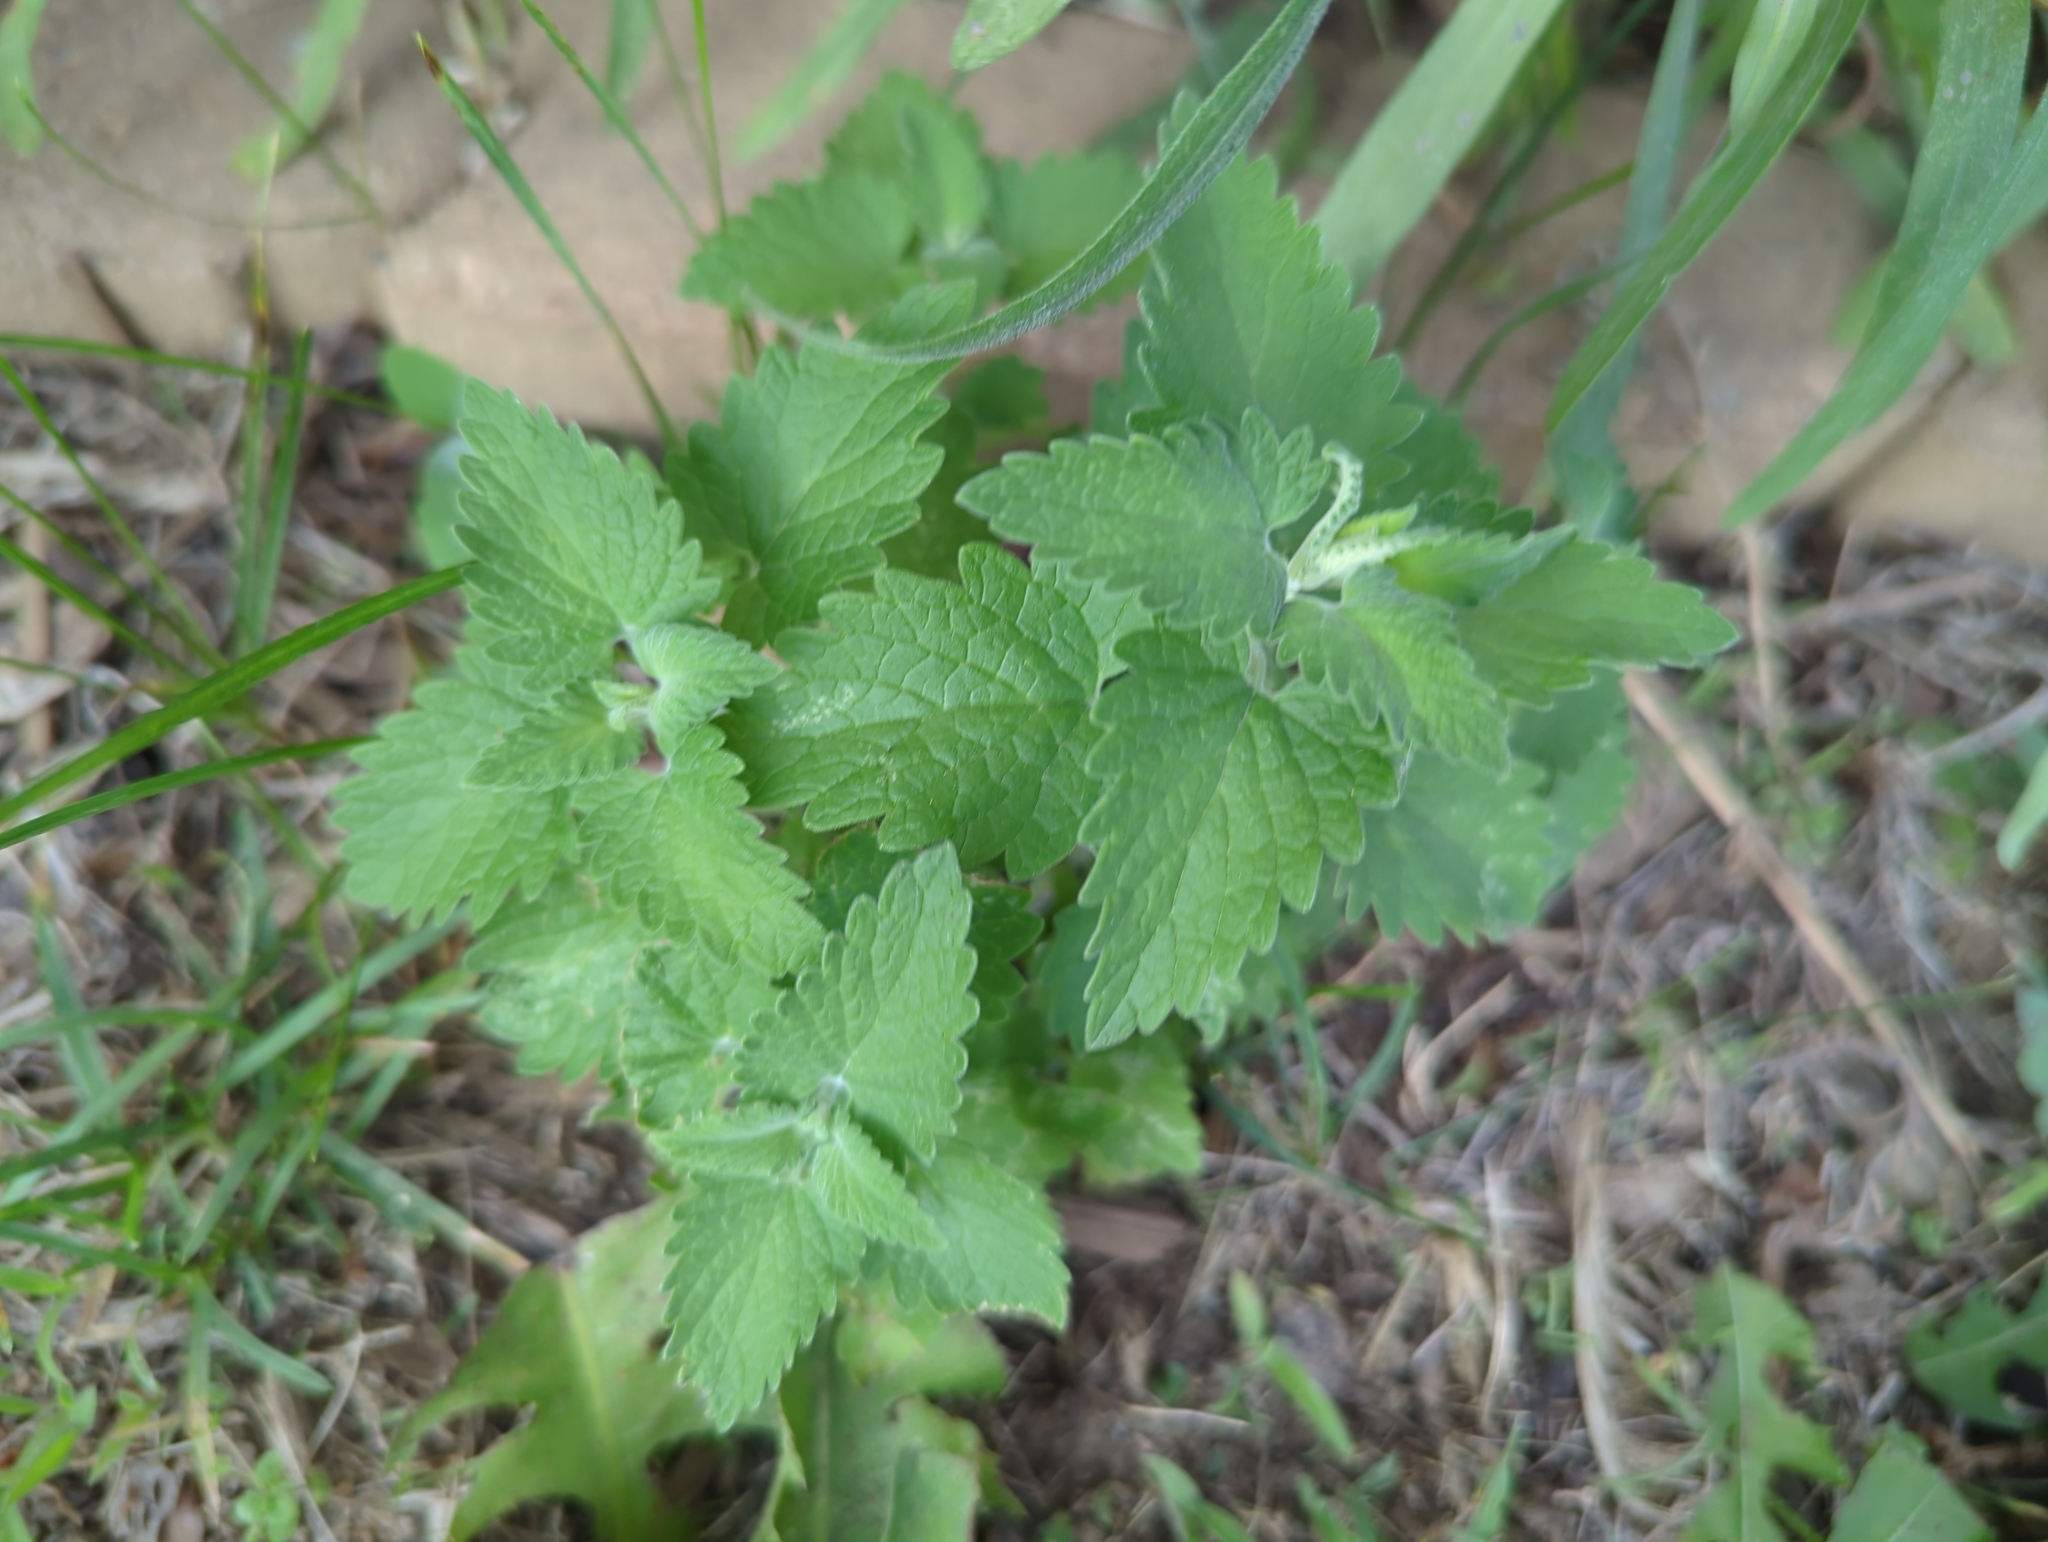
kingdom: Plantae
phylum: Tracheophyta
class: Magnoliopsida
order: Lamiales
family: Lamiaceae
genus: Nepeta
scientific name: Nepeta cataria
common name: Catnip
